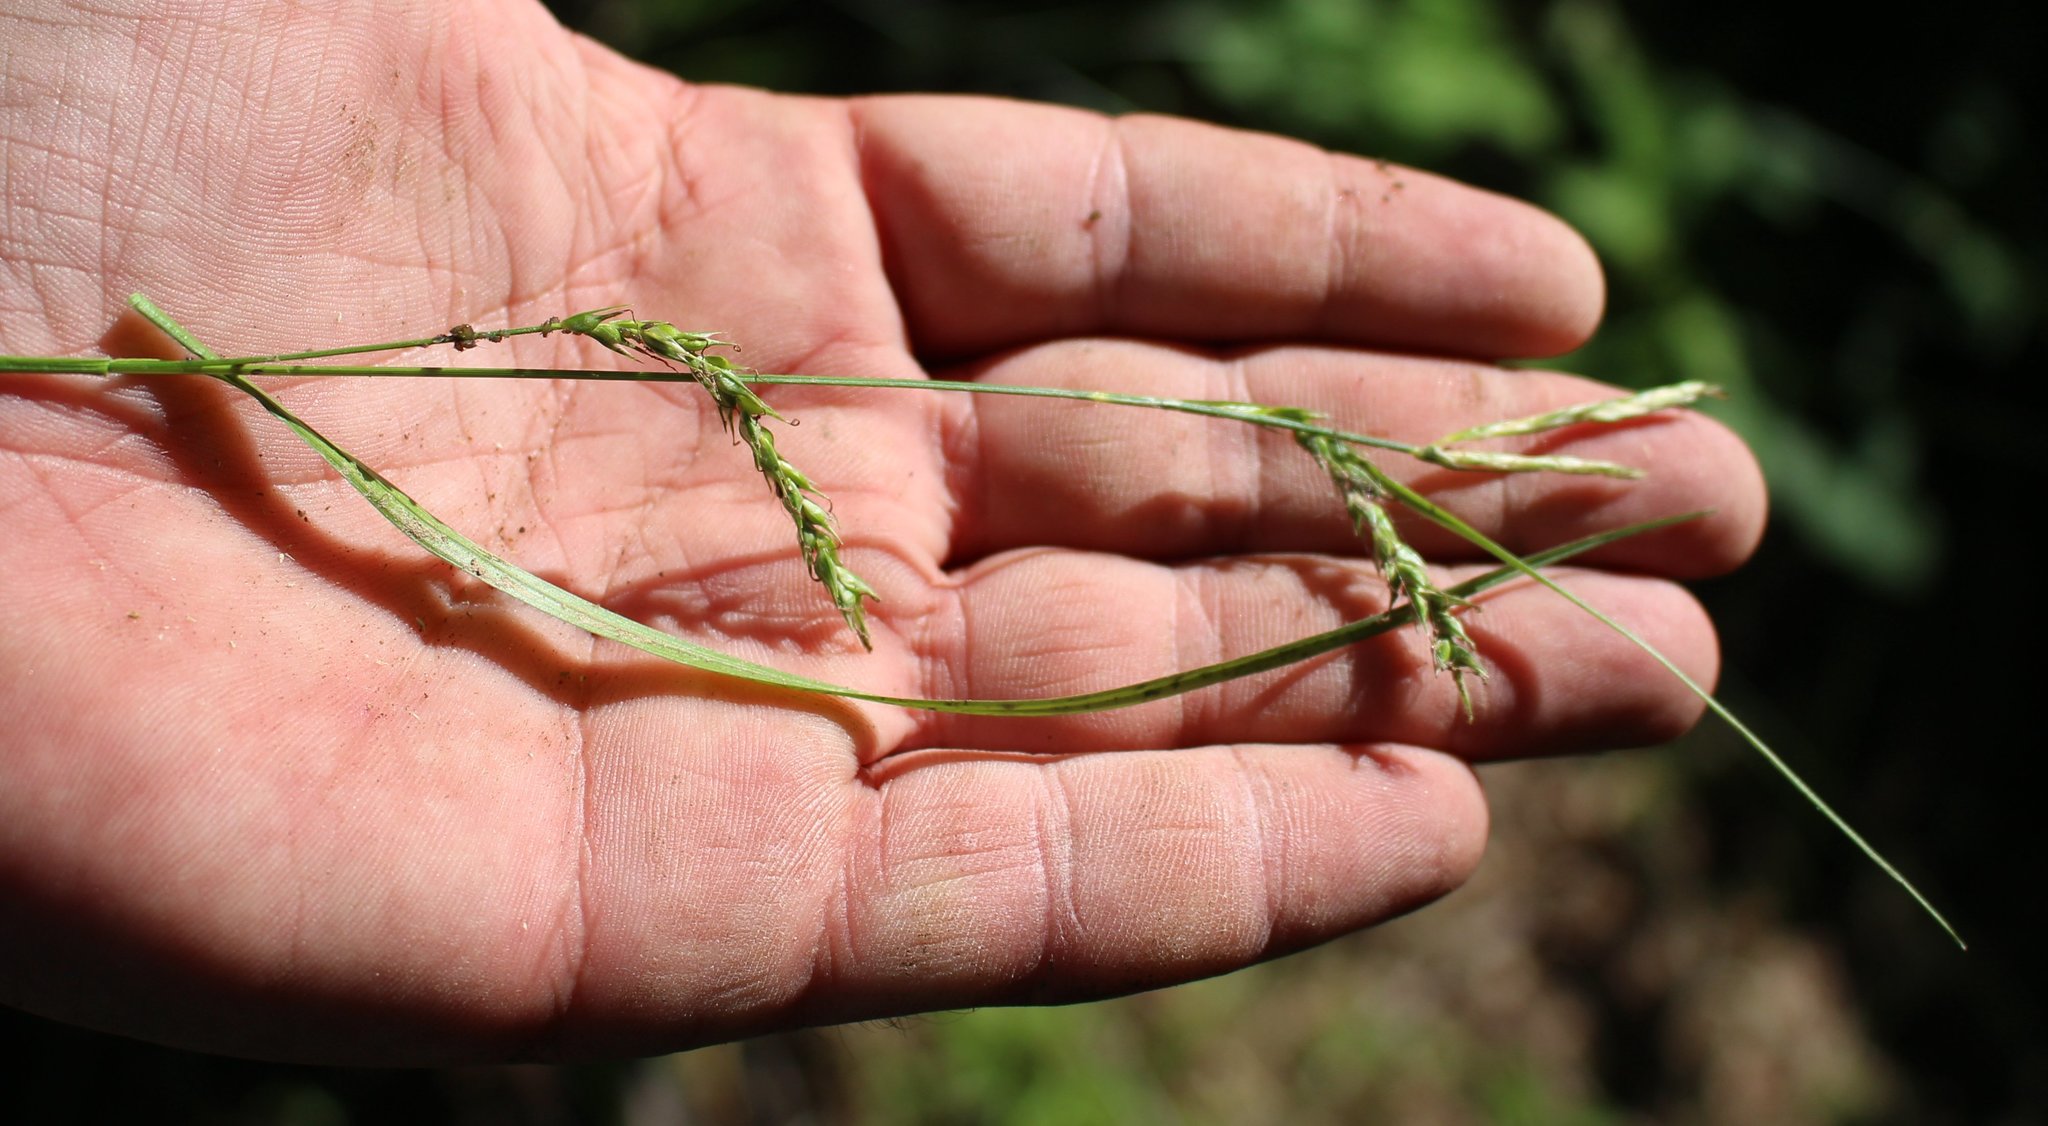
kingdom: Plantae
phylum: Tracheophyta
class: Liliopsida
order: Poales
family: Cyperaceae
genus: Carex
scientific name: Carex sylvatica
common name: Wood-sedge
